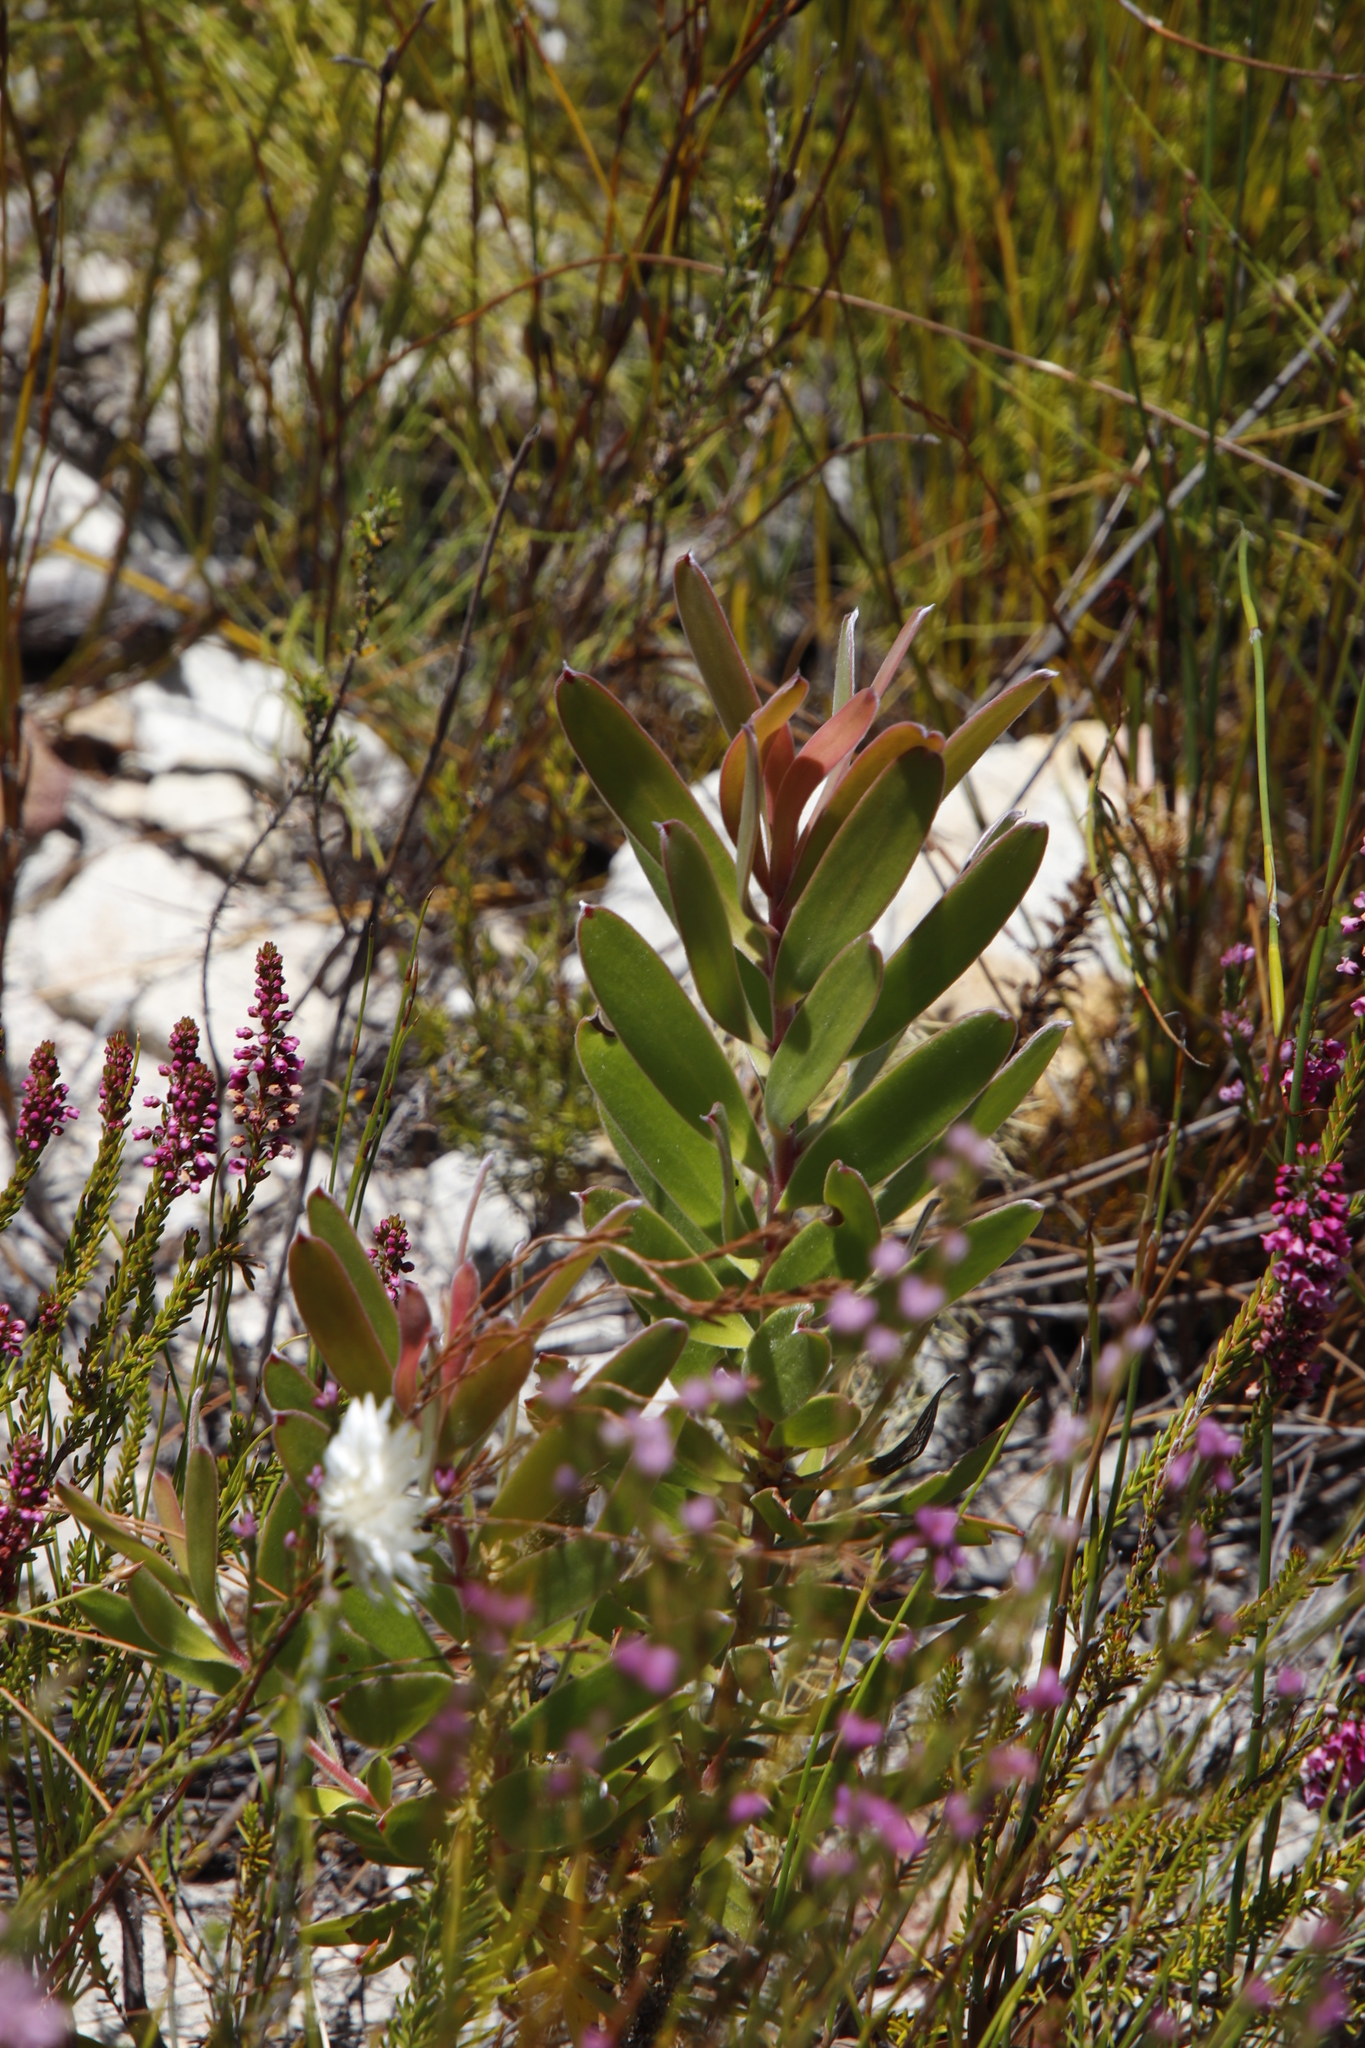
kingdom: Plantae
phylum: Tracheophyta
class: Magnoliopsida
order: Proteales
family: Proteaceae
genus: Leucadendron
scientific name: Leucadendron sessile
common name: Western sunbush
